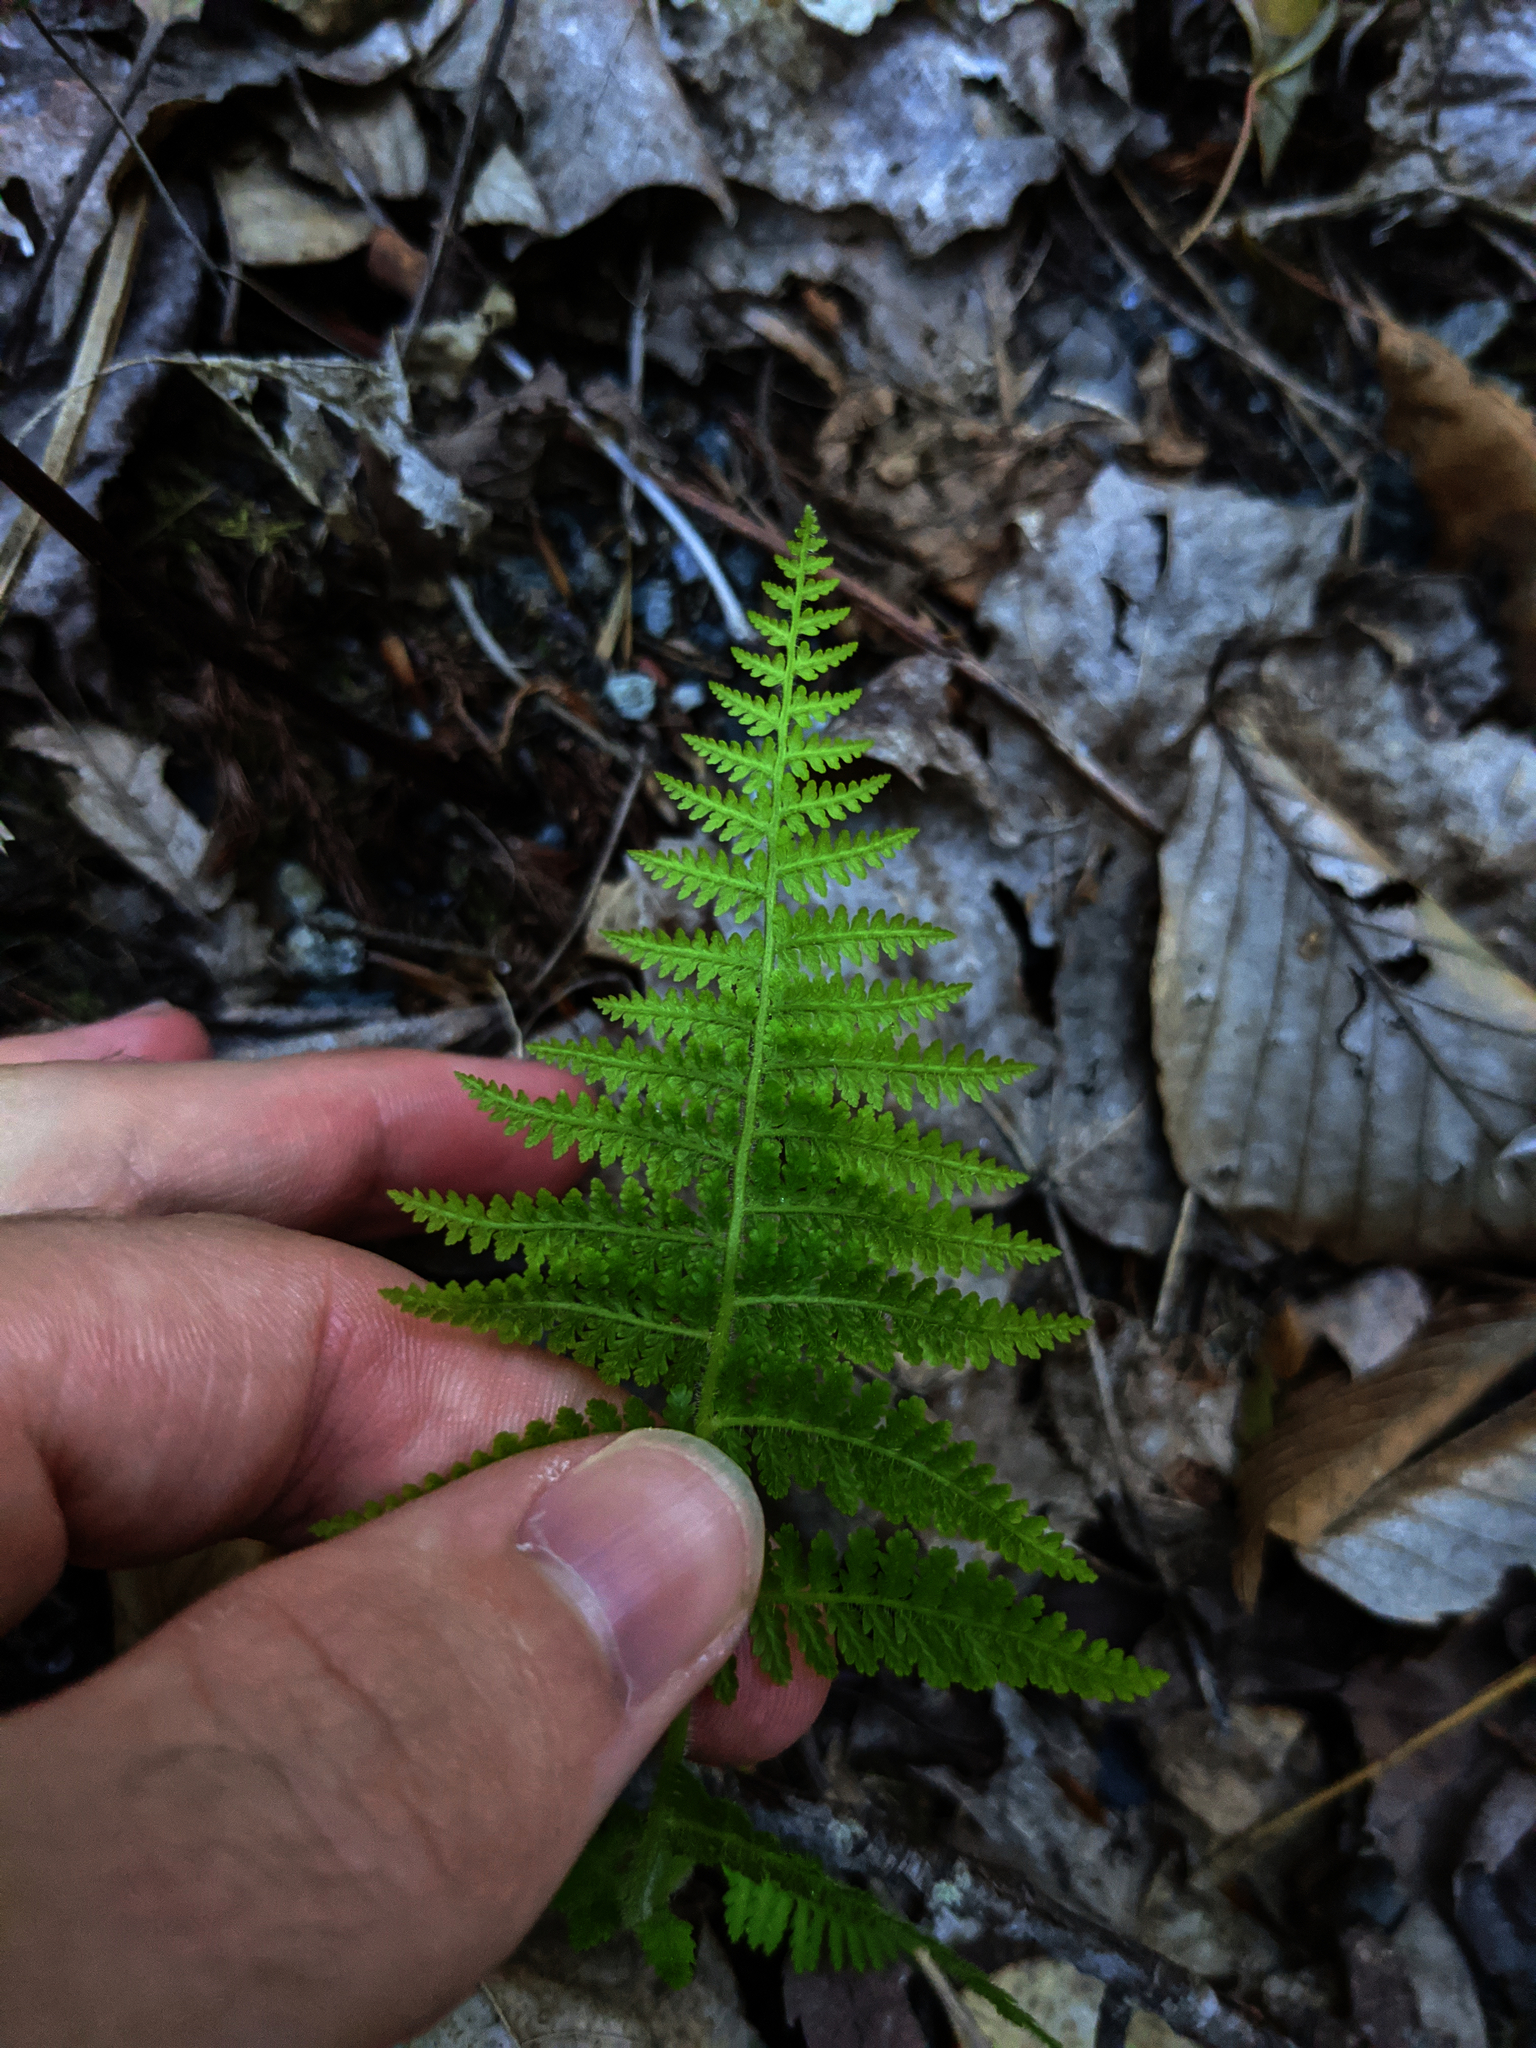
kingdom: Plantae
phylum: Tracheophyta
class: Polypodiopsida
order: Polypodiales
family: Dennstaedtiaceae
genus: Sitobolium
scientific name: Sitobolium punctilobum
